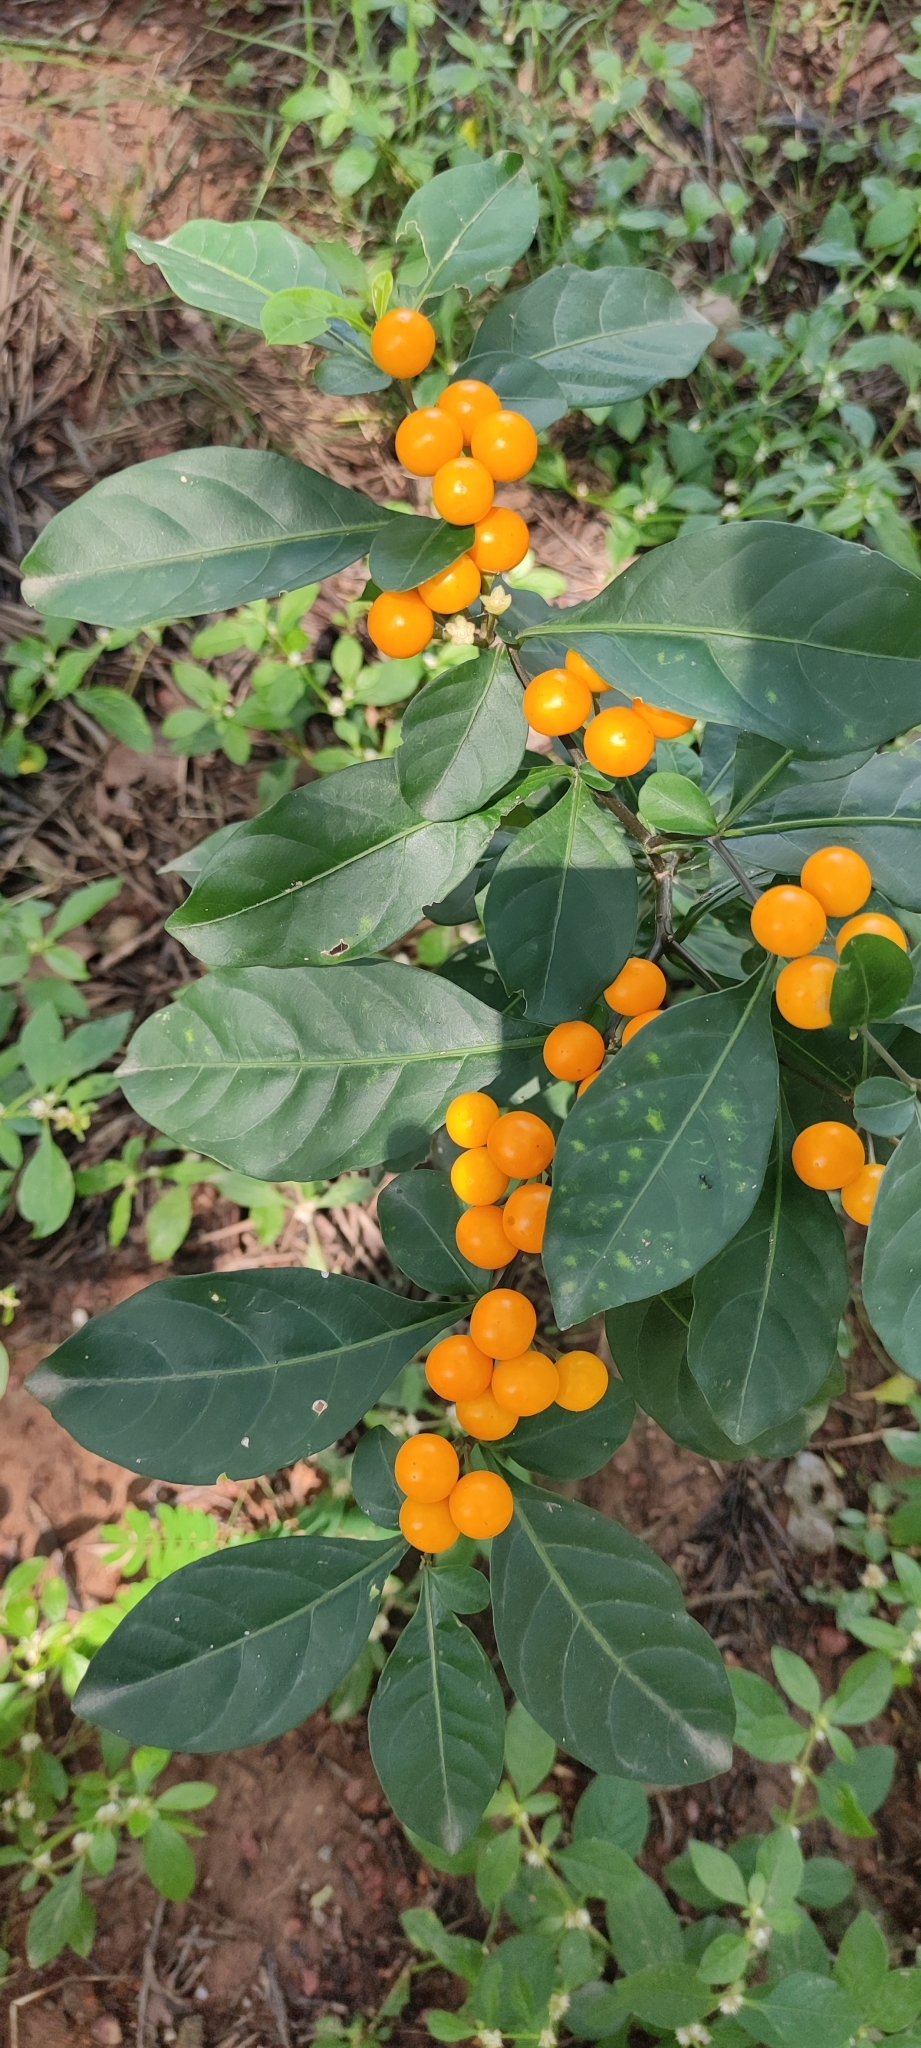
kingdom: Plantae
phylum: Tracheophyta
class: Magnoliopsida
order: Solanales
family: Solanaceae
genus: Solanum
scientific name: Solanum diphyllum
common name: Twoleaf nightshade
